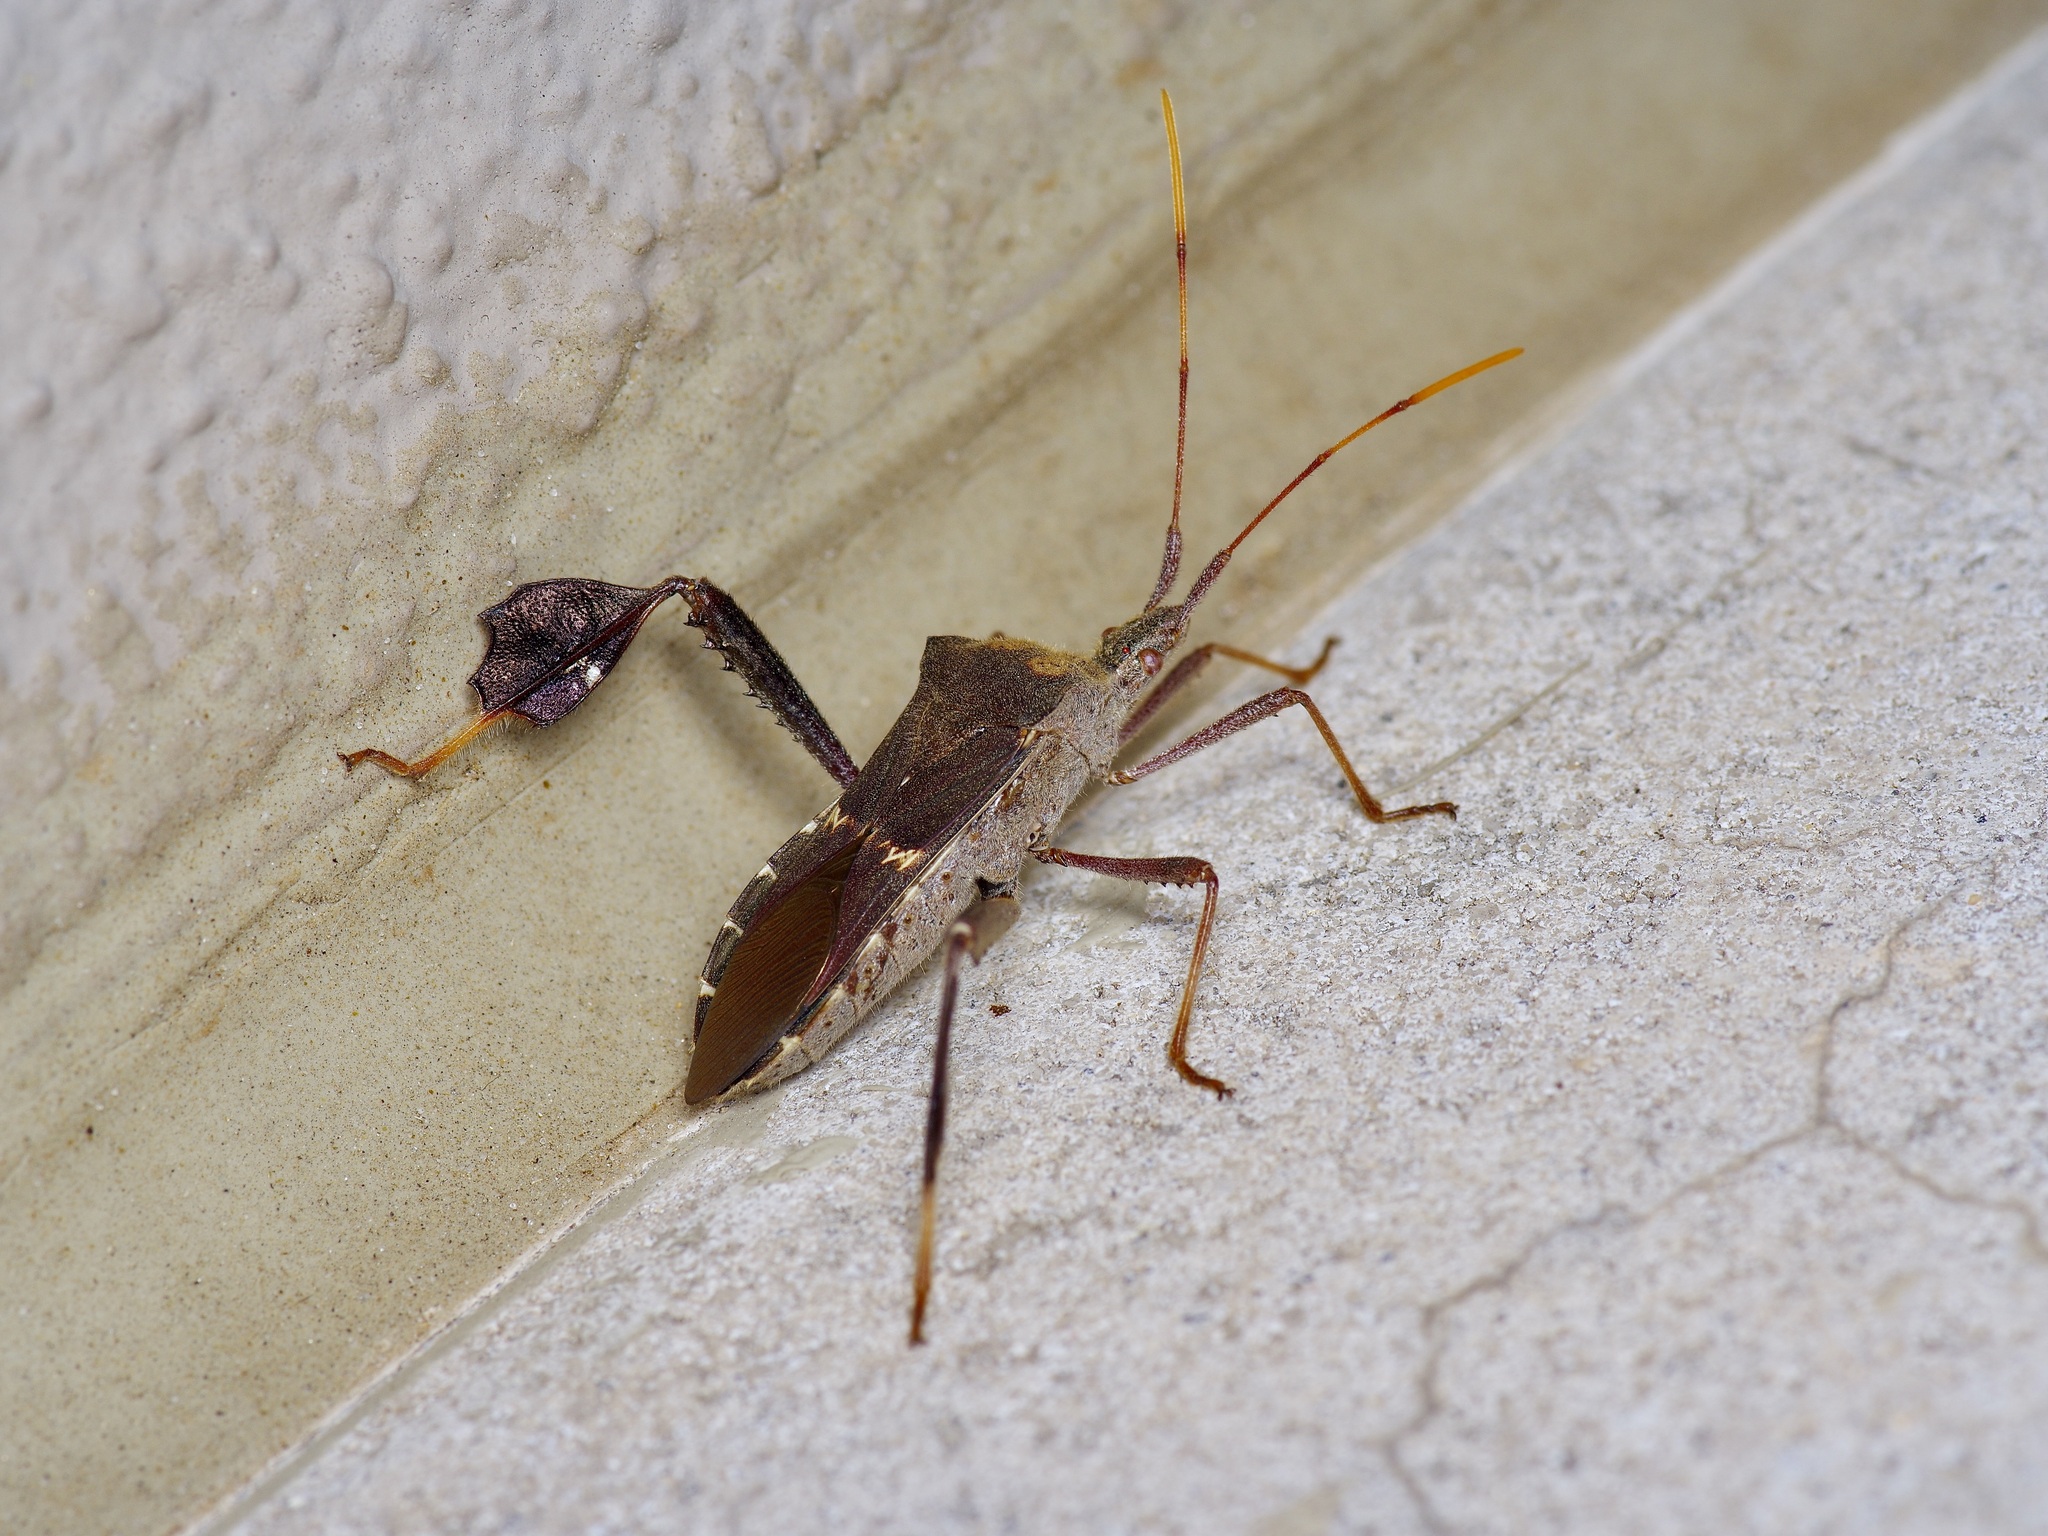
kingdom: Animalia
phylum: Arthropoda
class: Insecta
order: Hemiptera
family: Coreidae
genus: Leptoglossus
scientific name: Leptoglossus zonatus
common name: Large-legged bug
